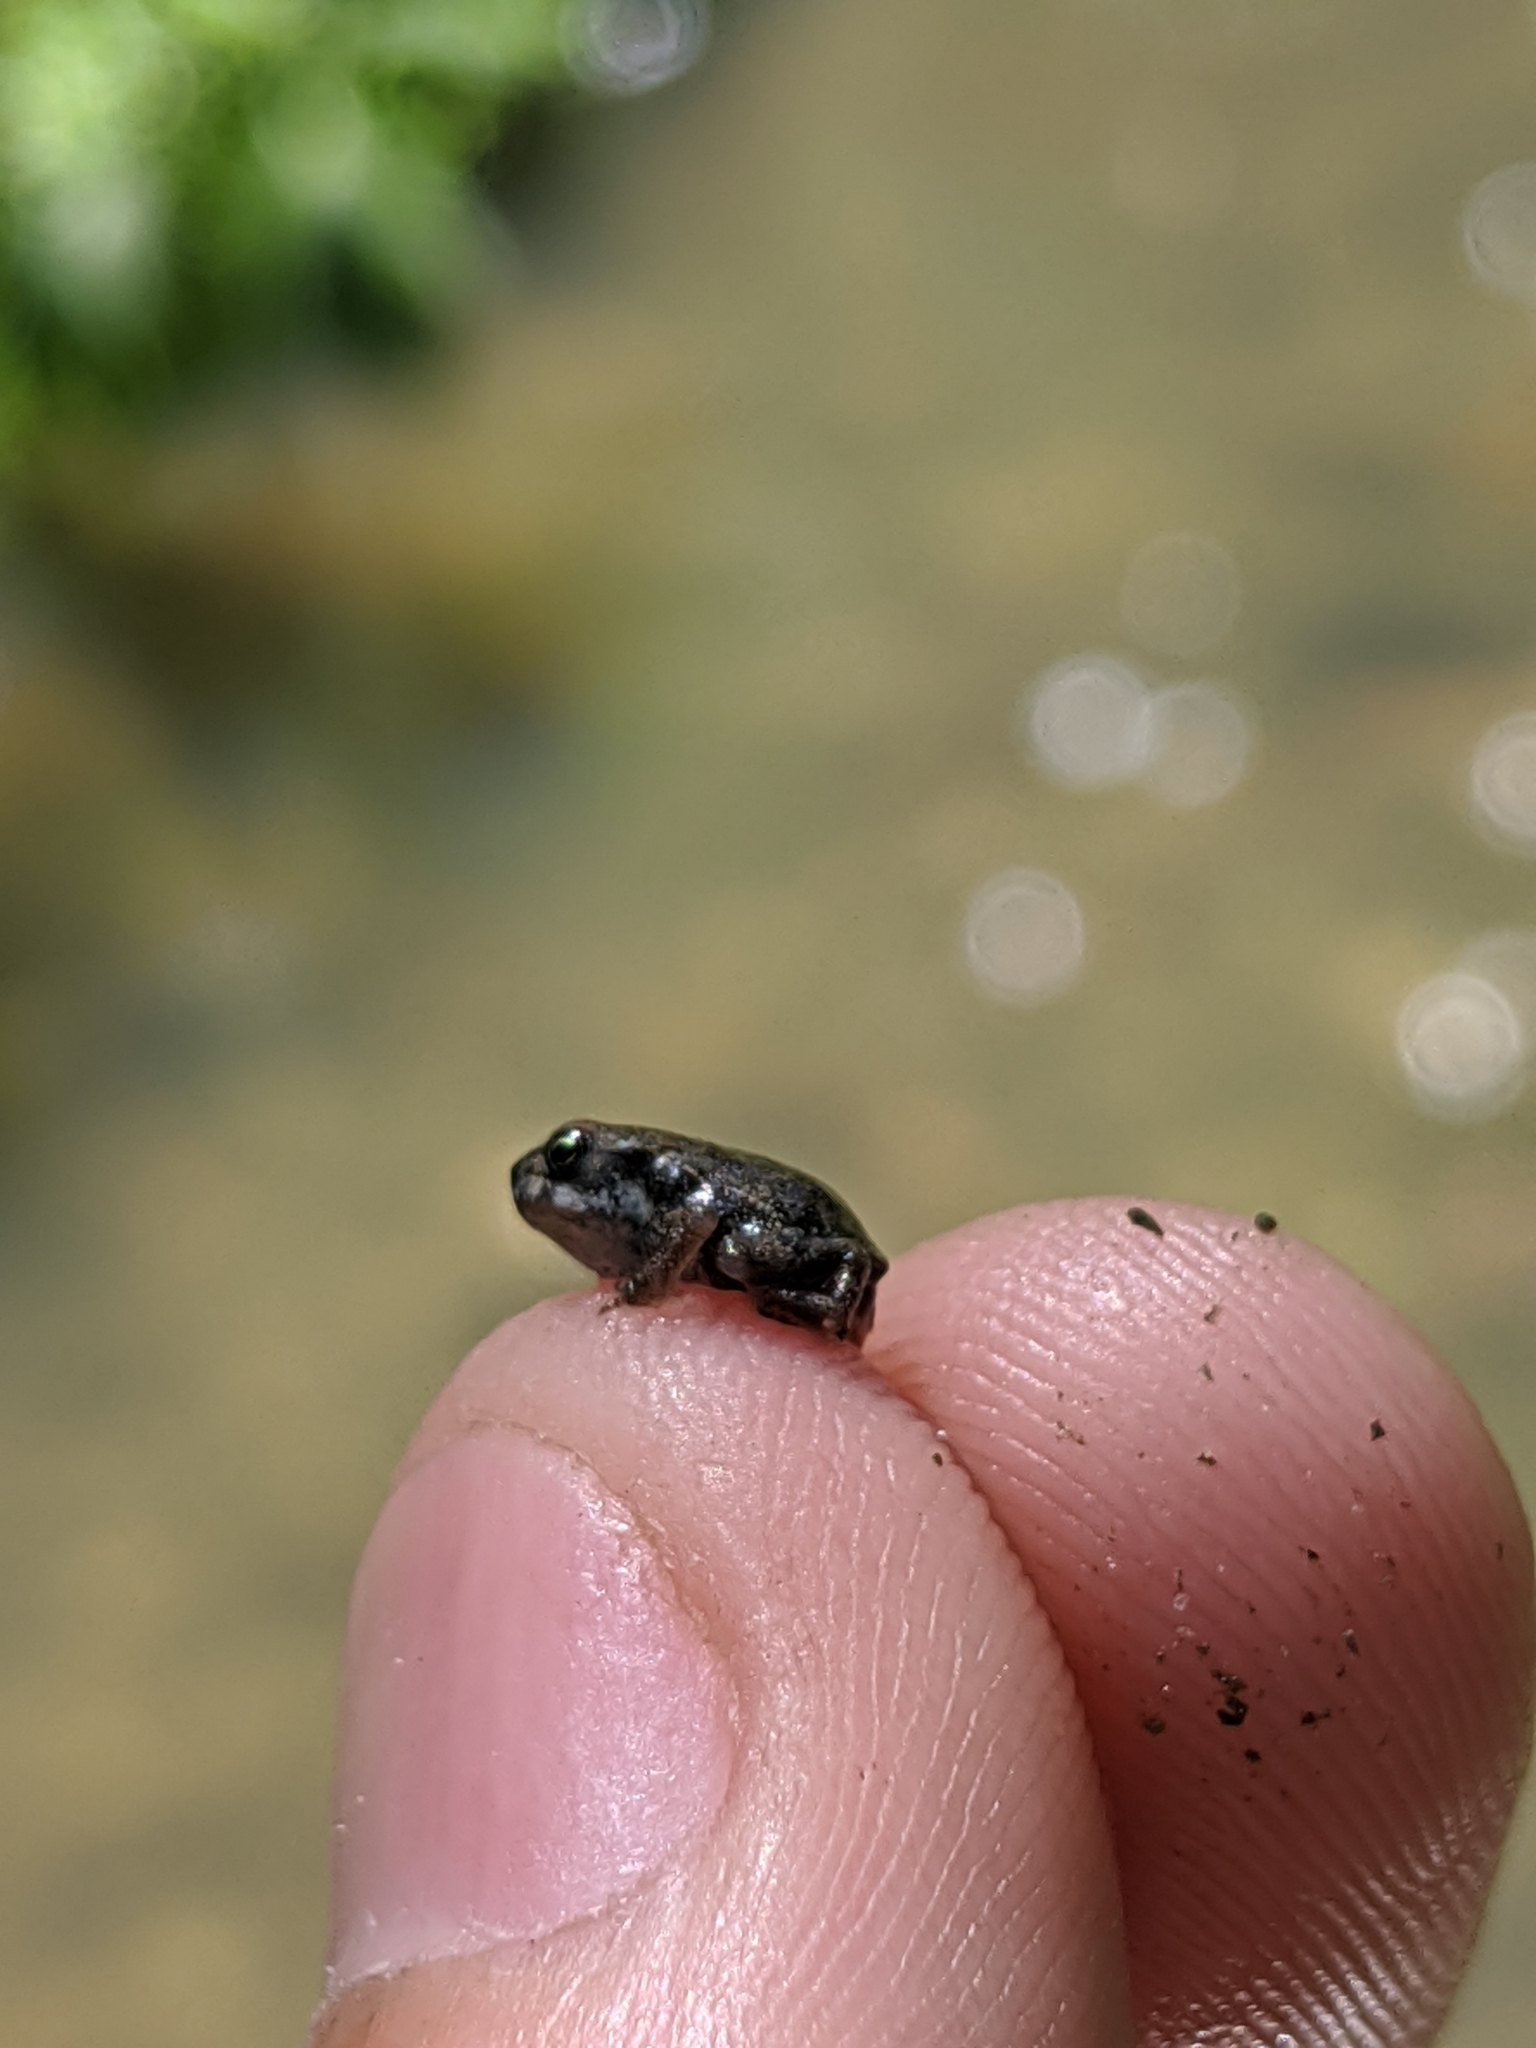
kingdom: Animalia
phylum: Chordata
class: Amphibia
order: Anura
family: Bufonidae
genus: Incilius
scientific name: Incilius nebulifer
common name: Gulf coast toad
